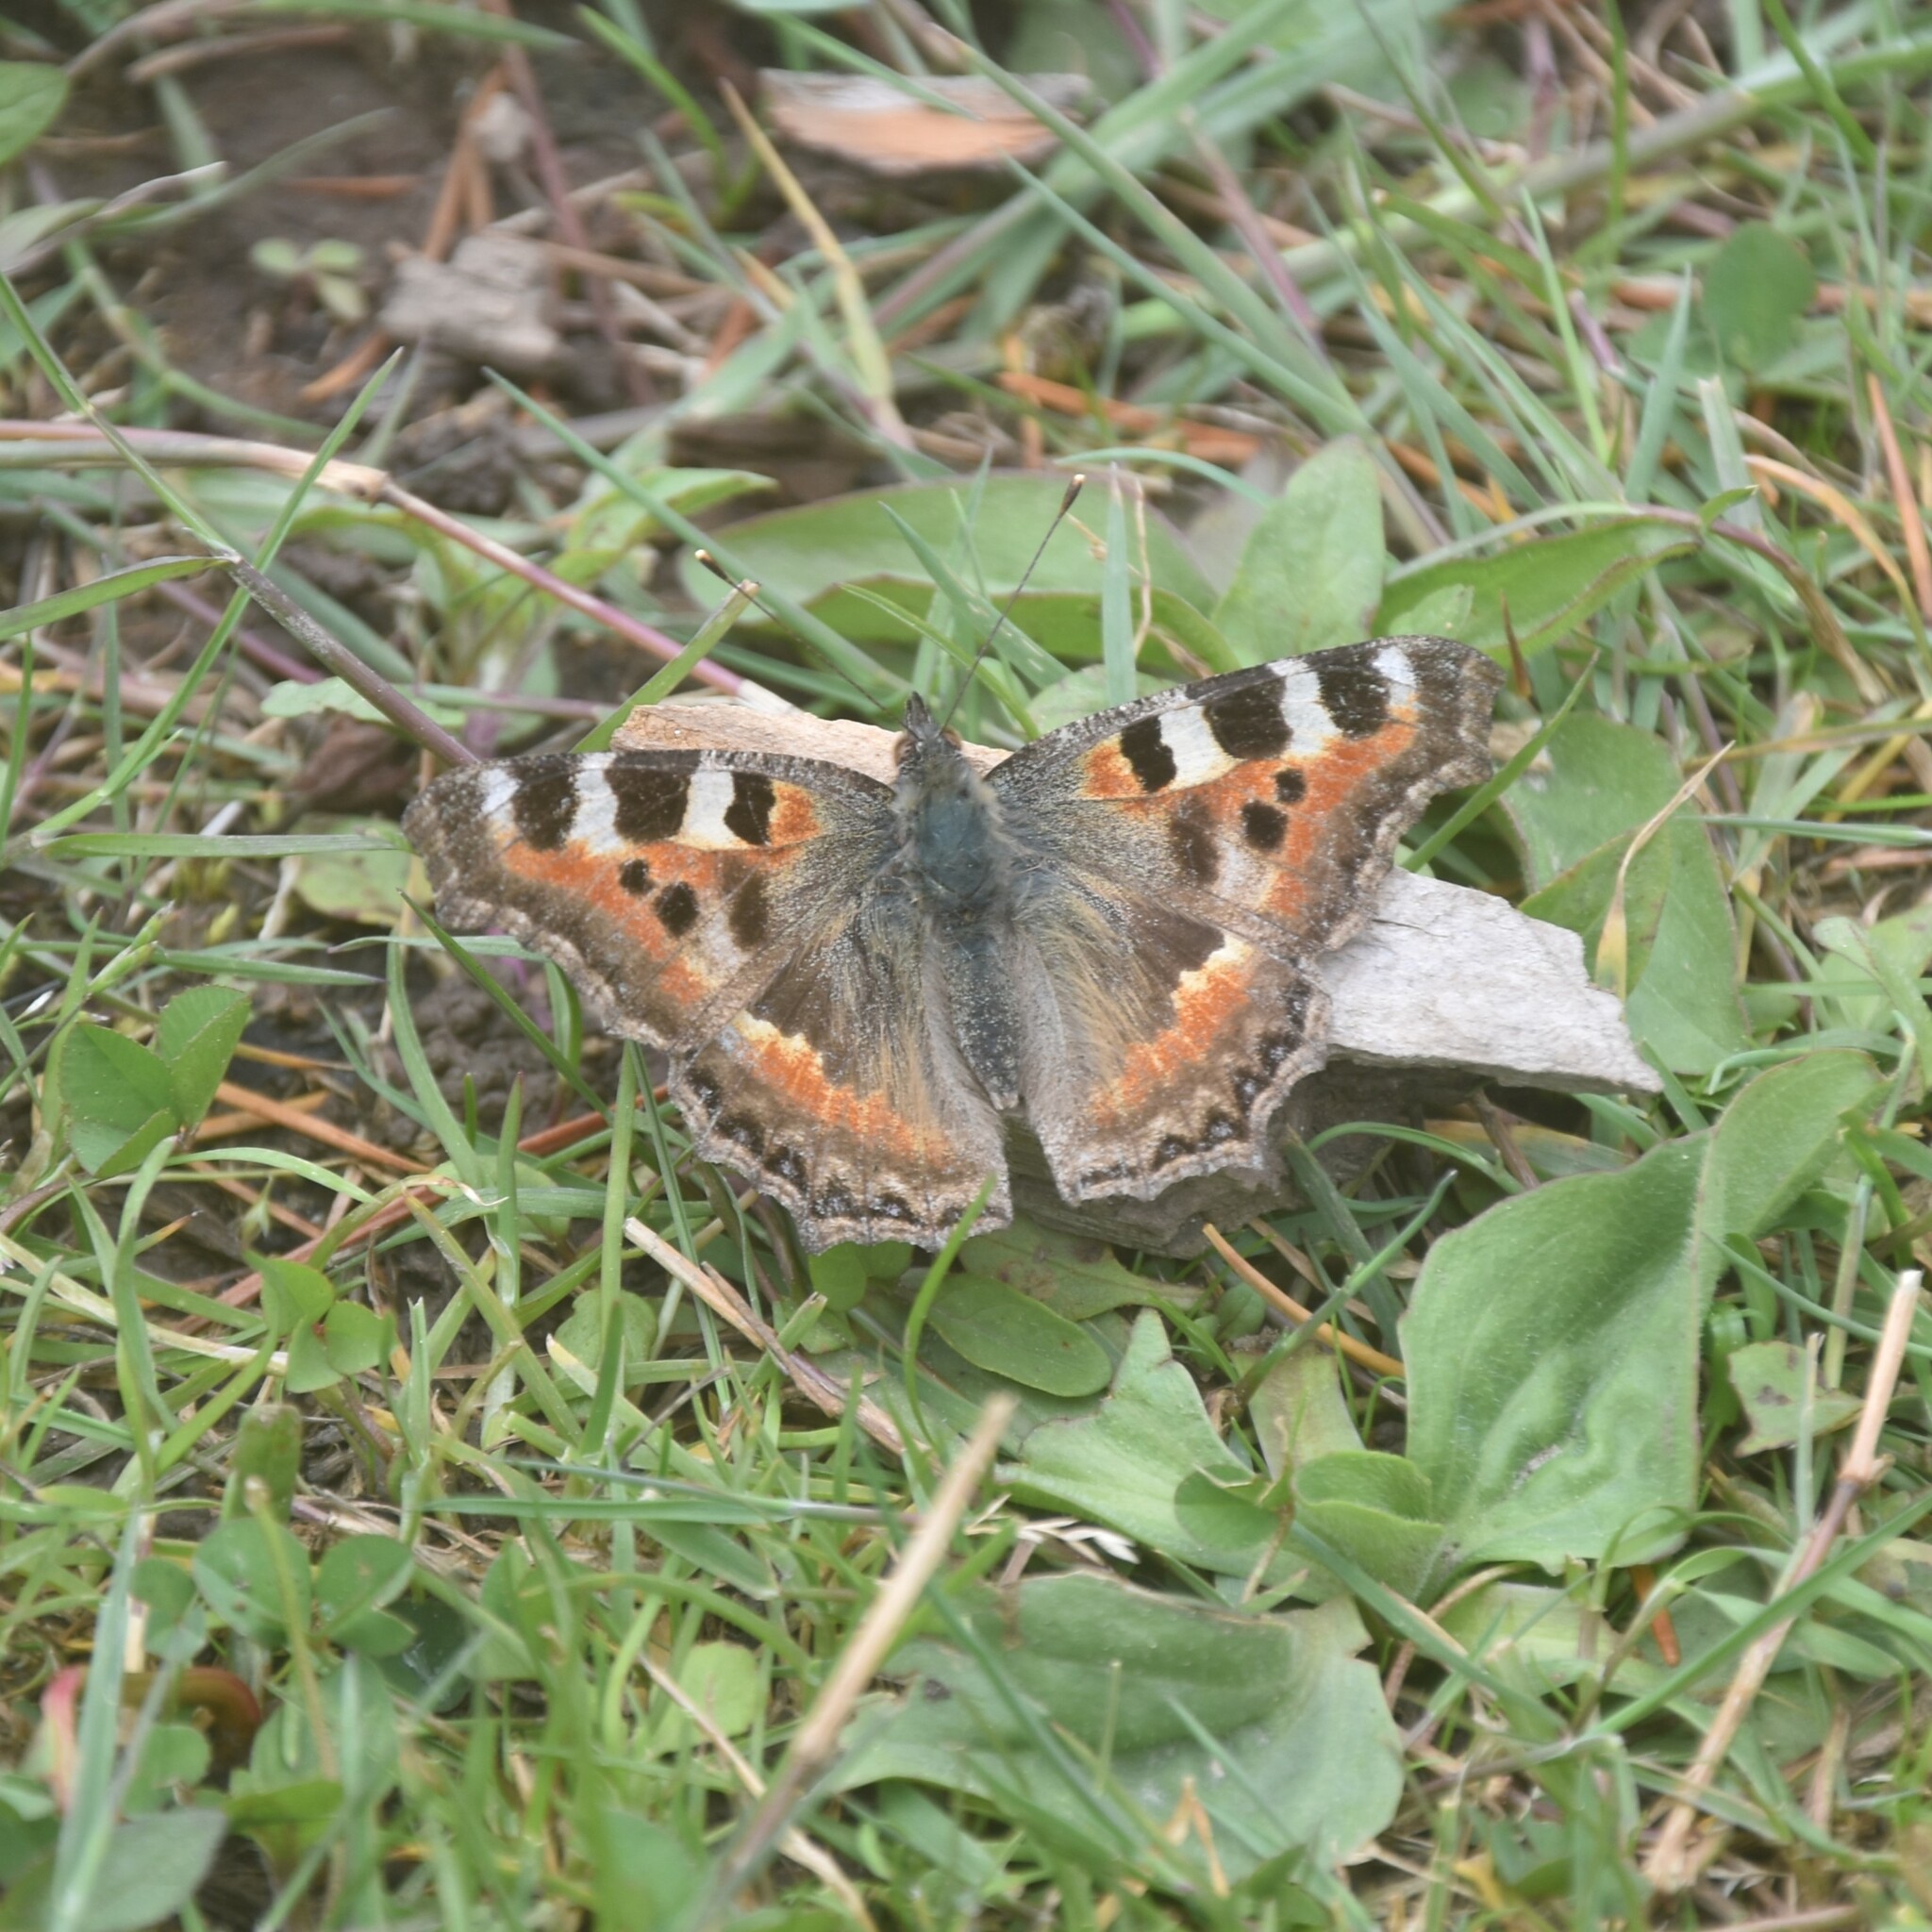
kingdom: Animalia
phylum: Arthropoda
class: Insecta
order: Lepidoptera
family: Nymphalidae
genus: Aglais
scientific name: Aglais caschmirensis
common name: Indian tortoiseshell
